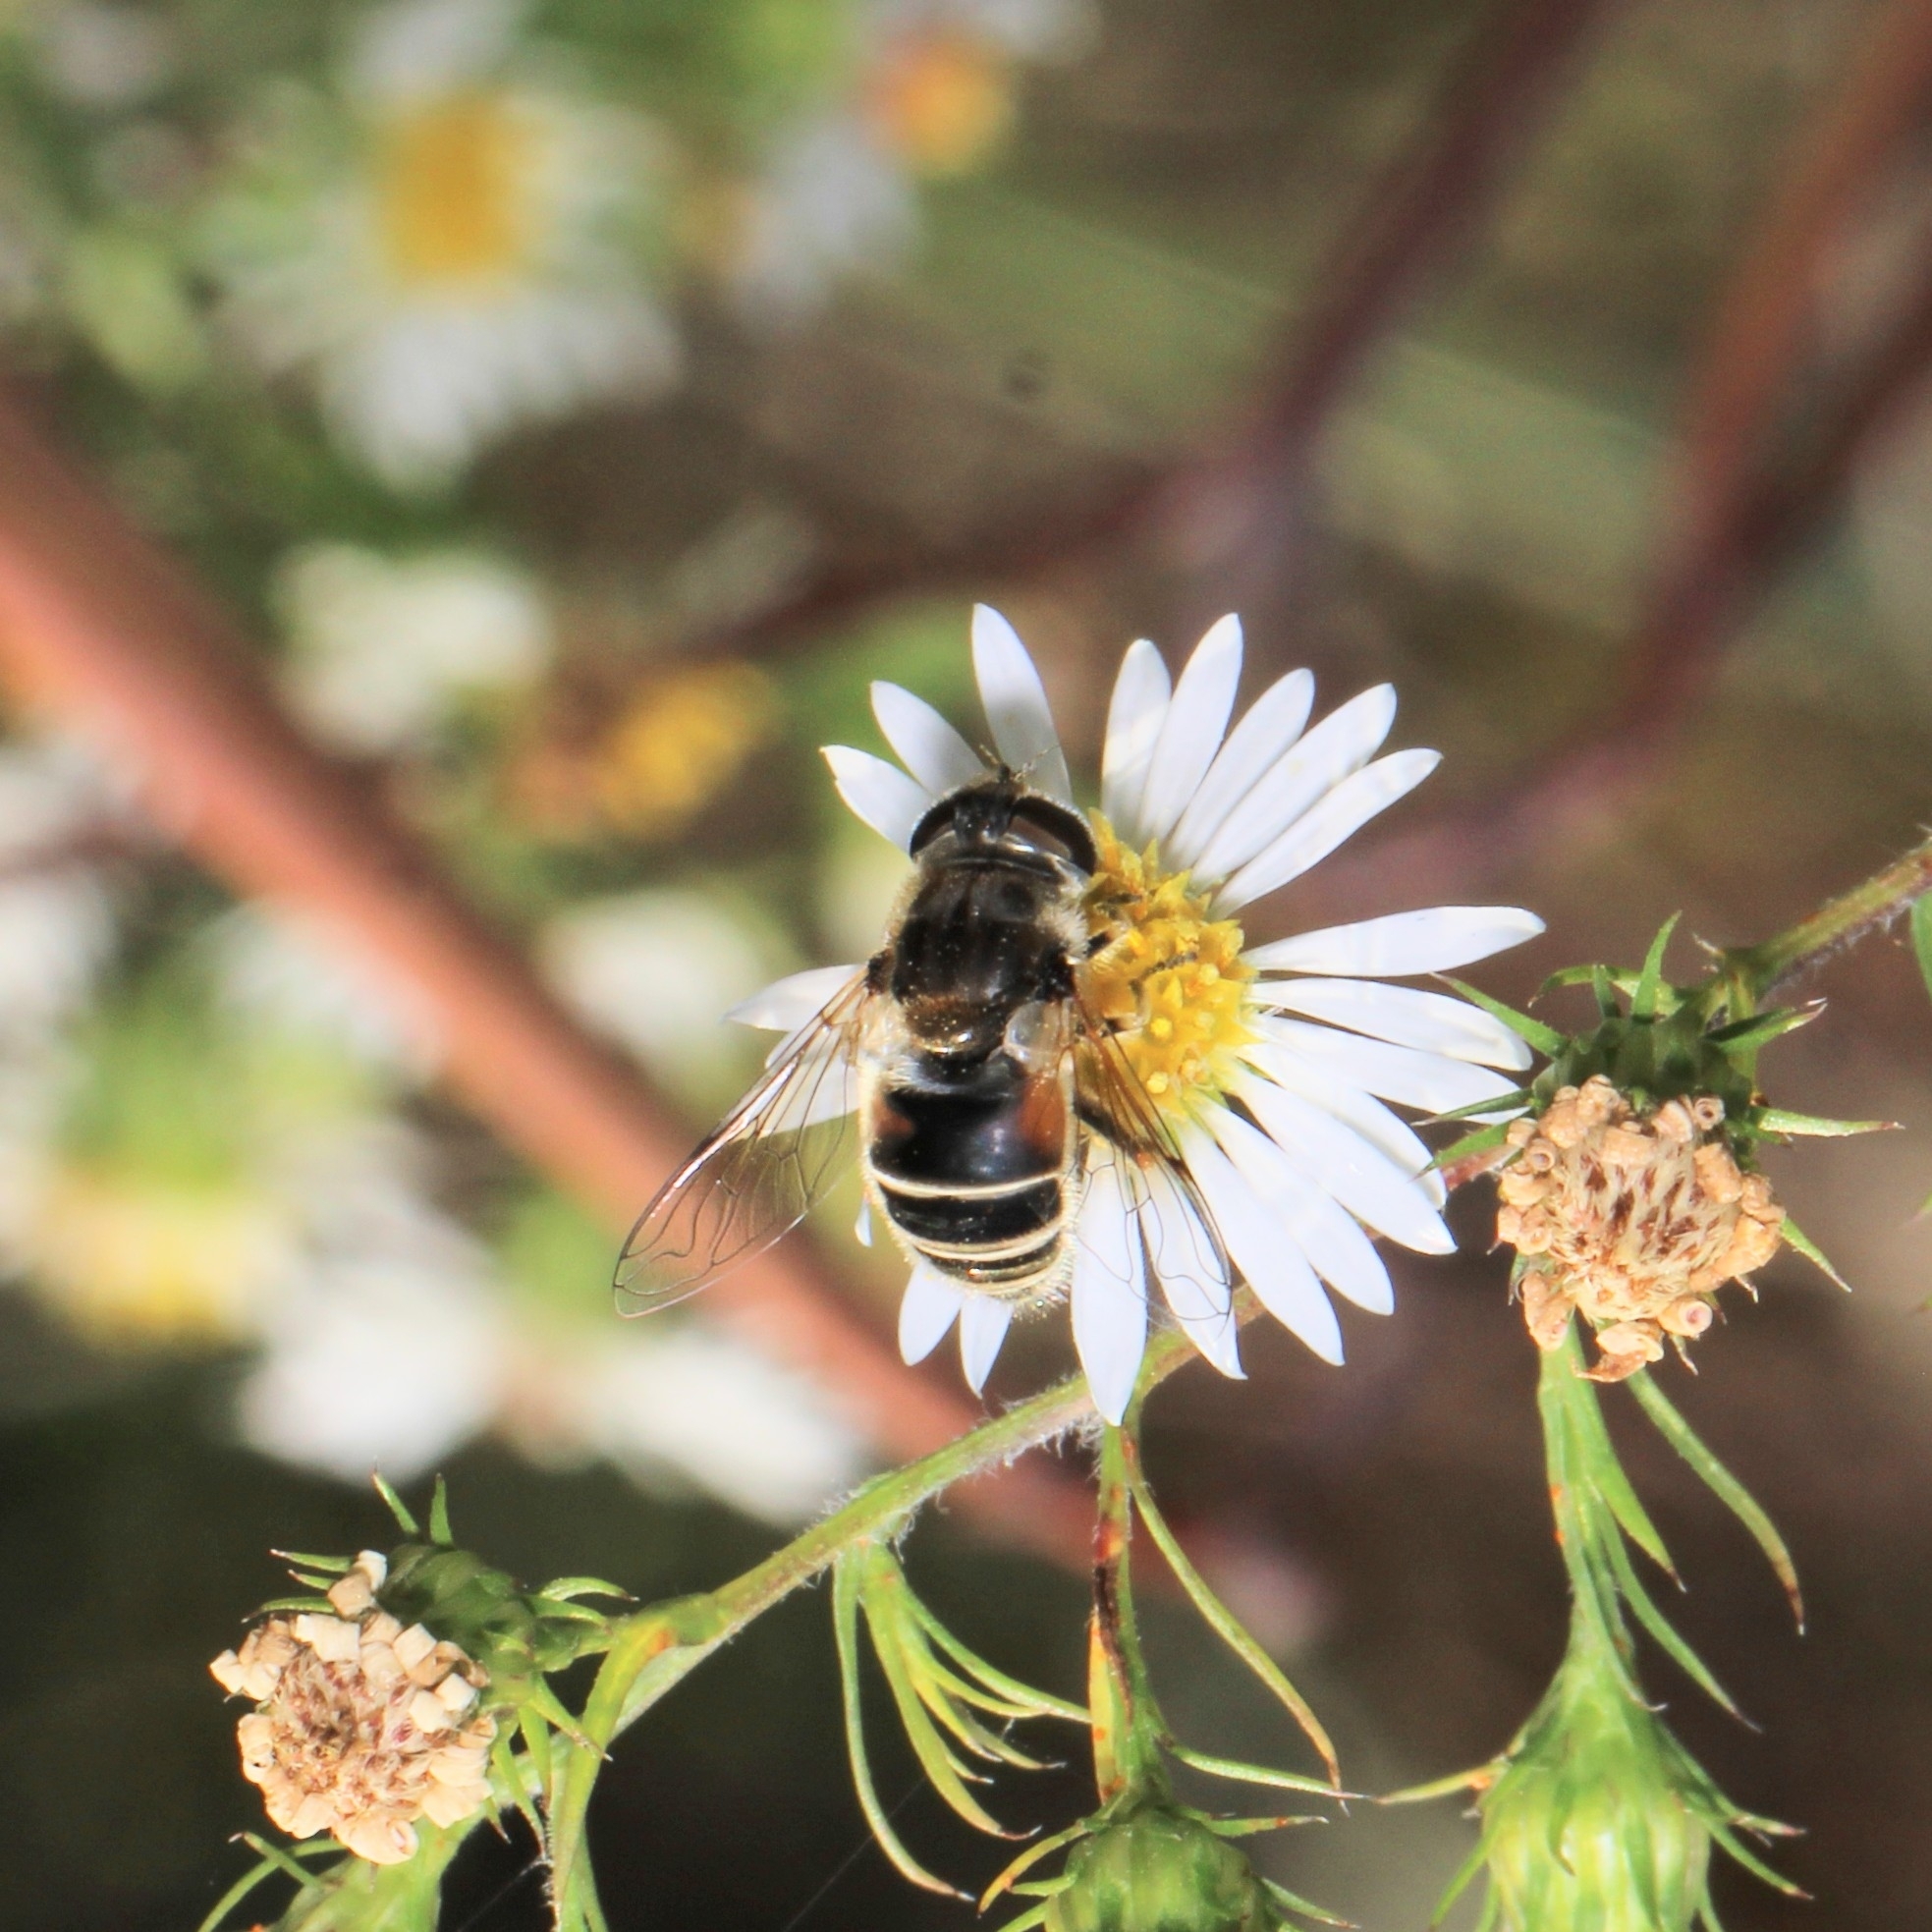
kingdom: Animalia
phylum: Arthropoda
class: Insecta
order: Diptera
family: Syrphidae
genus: Eristalis
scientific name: Eristalis arbustorum
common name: Hover fly
